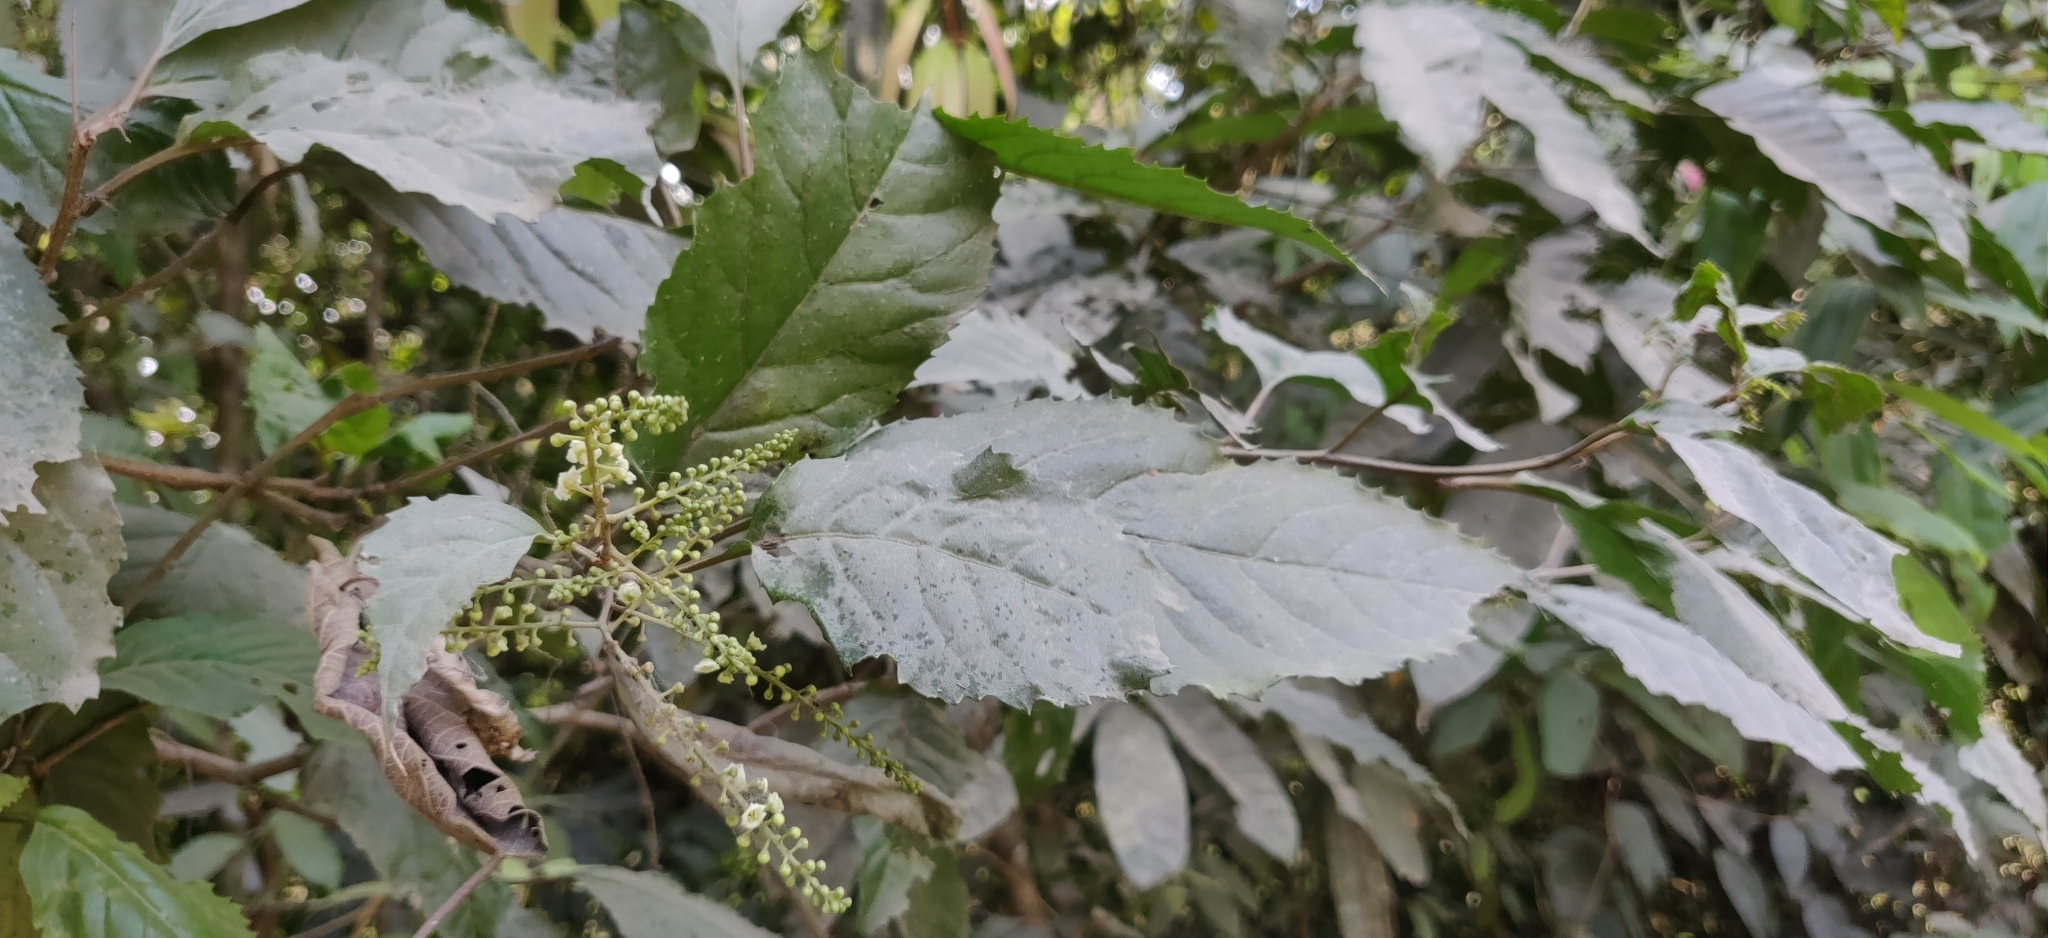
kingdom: Plantae
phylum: Tracheophyta
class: Magnoliopsida
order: Ericales
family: Primulaceae
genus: Maesa
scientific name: Maesa indica
